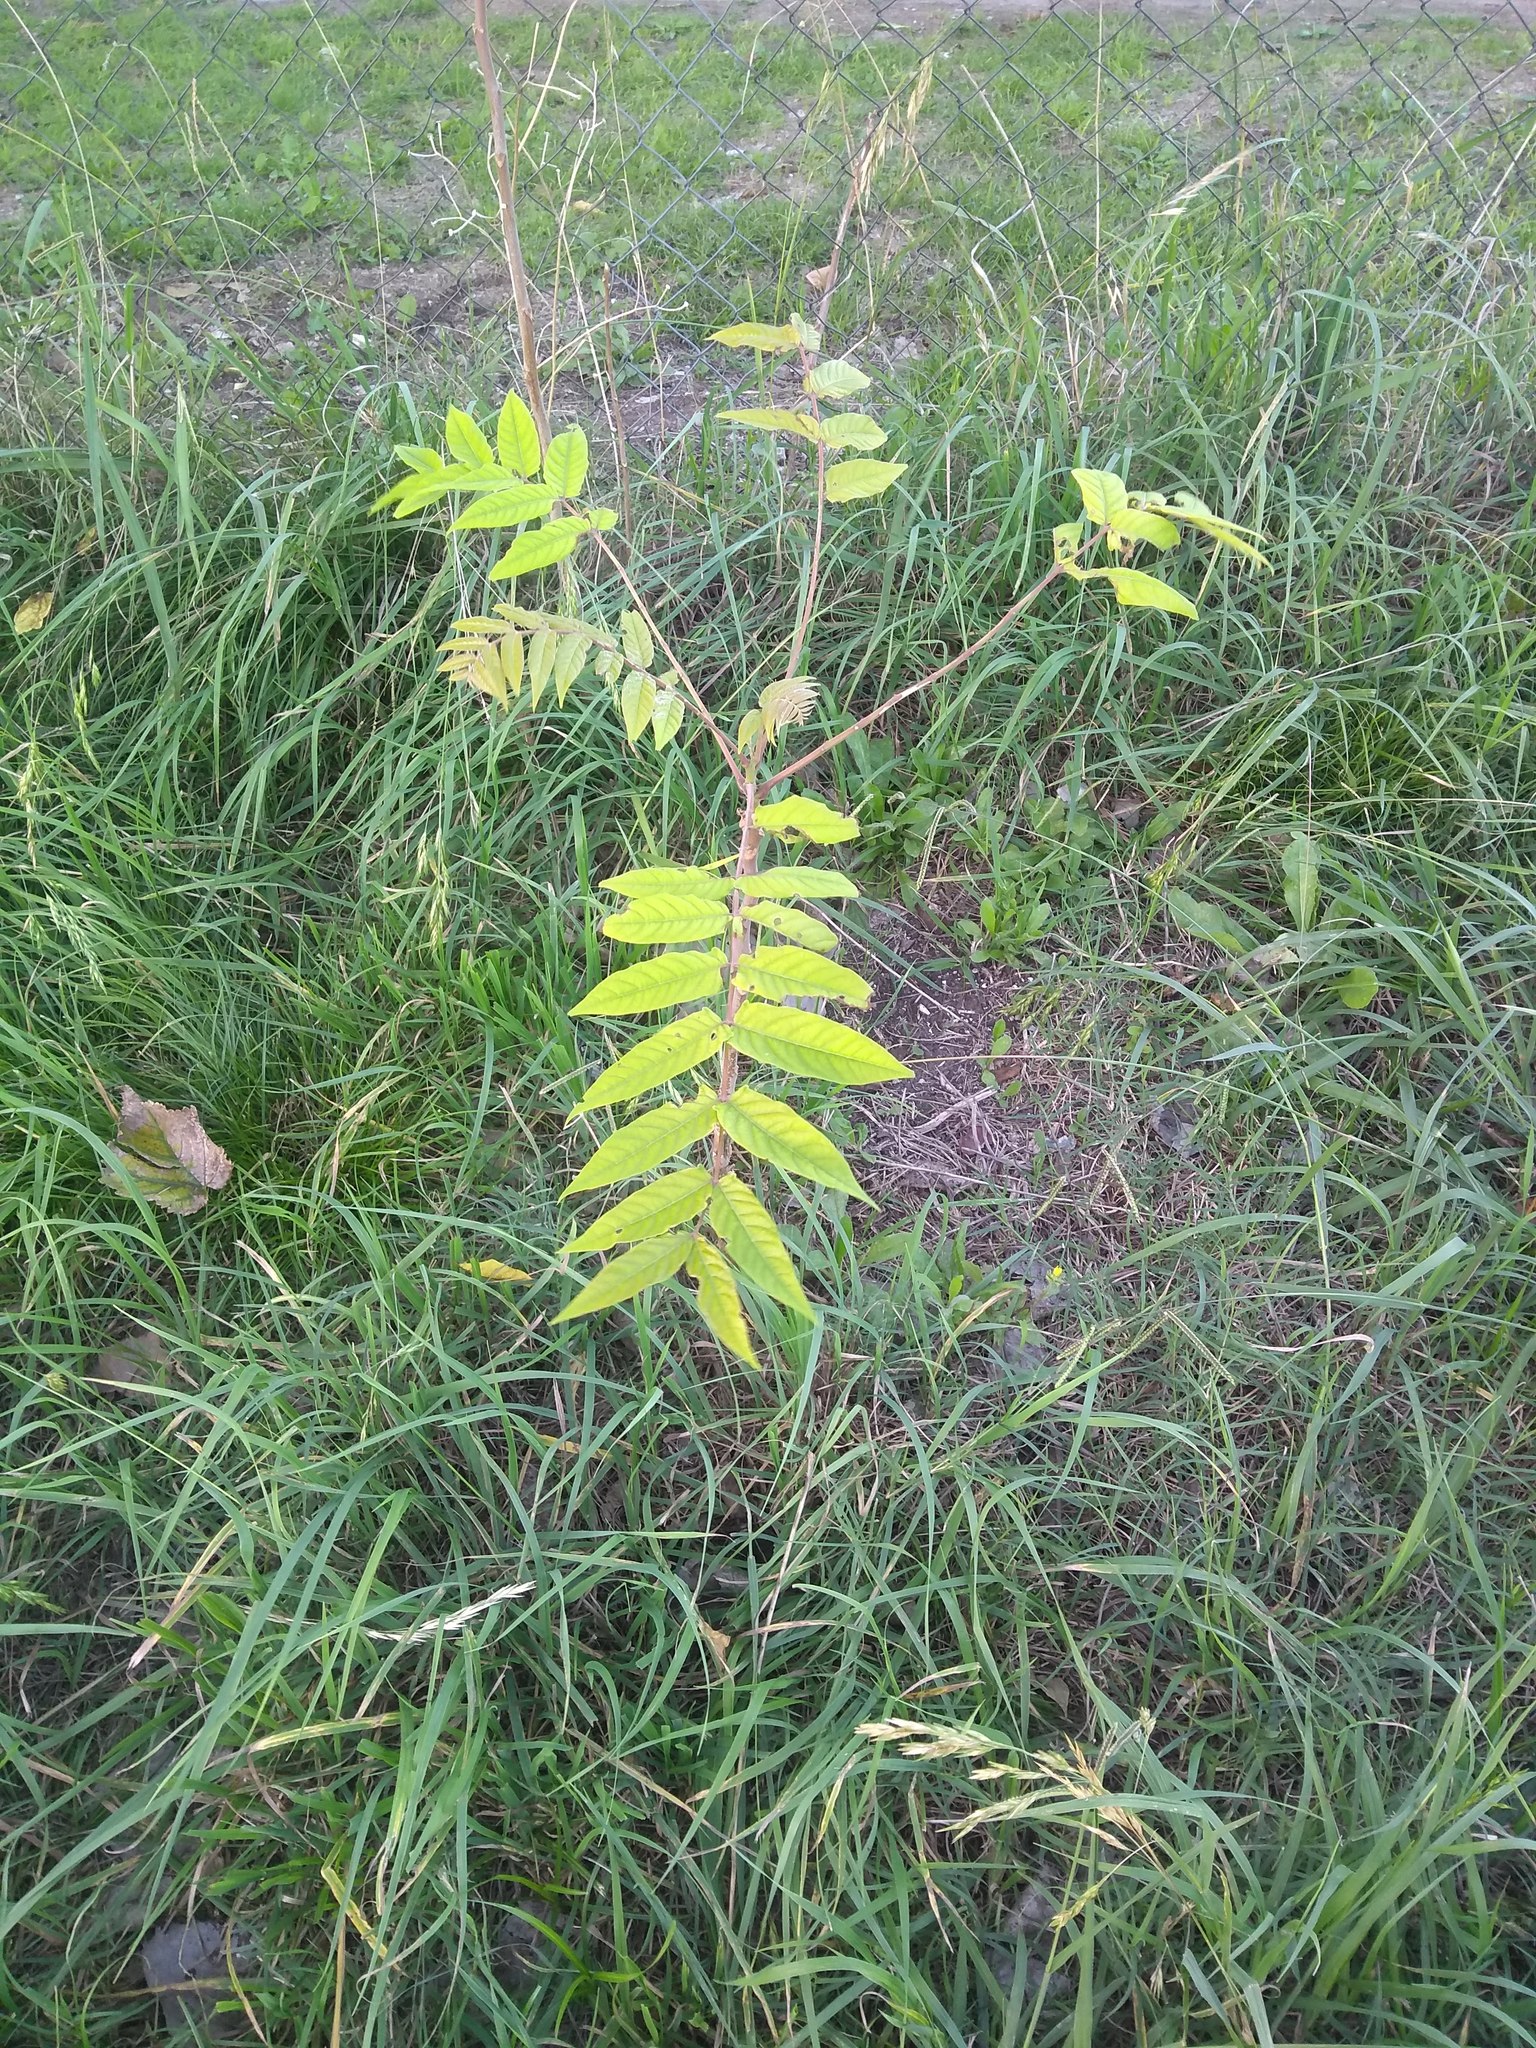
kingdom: Plantae
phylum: Tracheophyta
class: Magnoliopsida
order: Sapindales
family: Simaroubaceae
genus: Ailanthus
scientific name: Ailanthus altissima
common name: Tree-of-heaven
